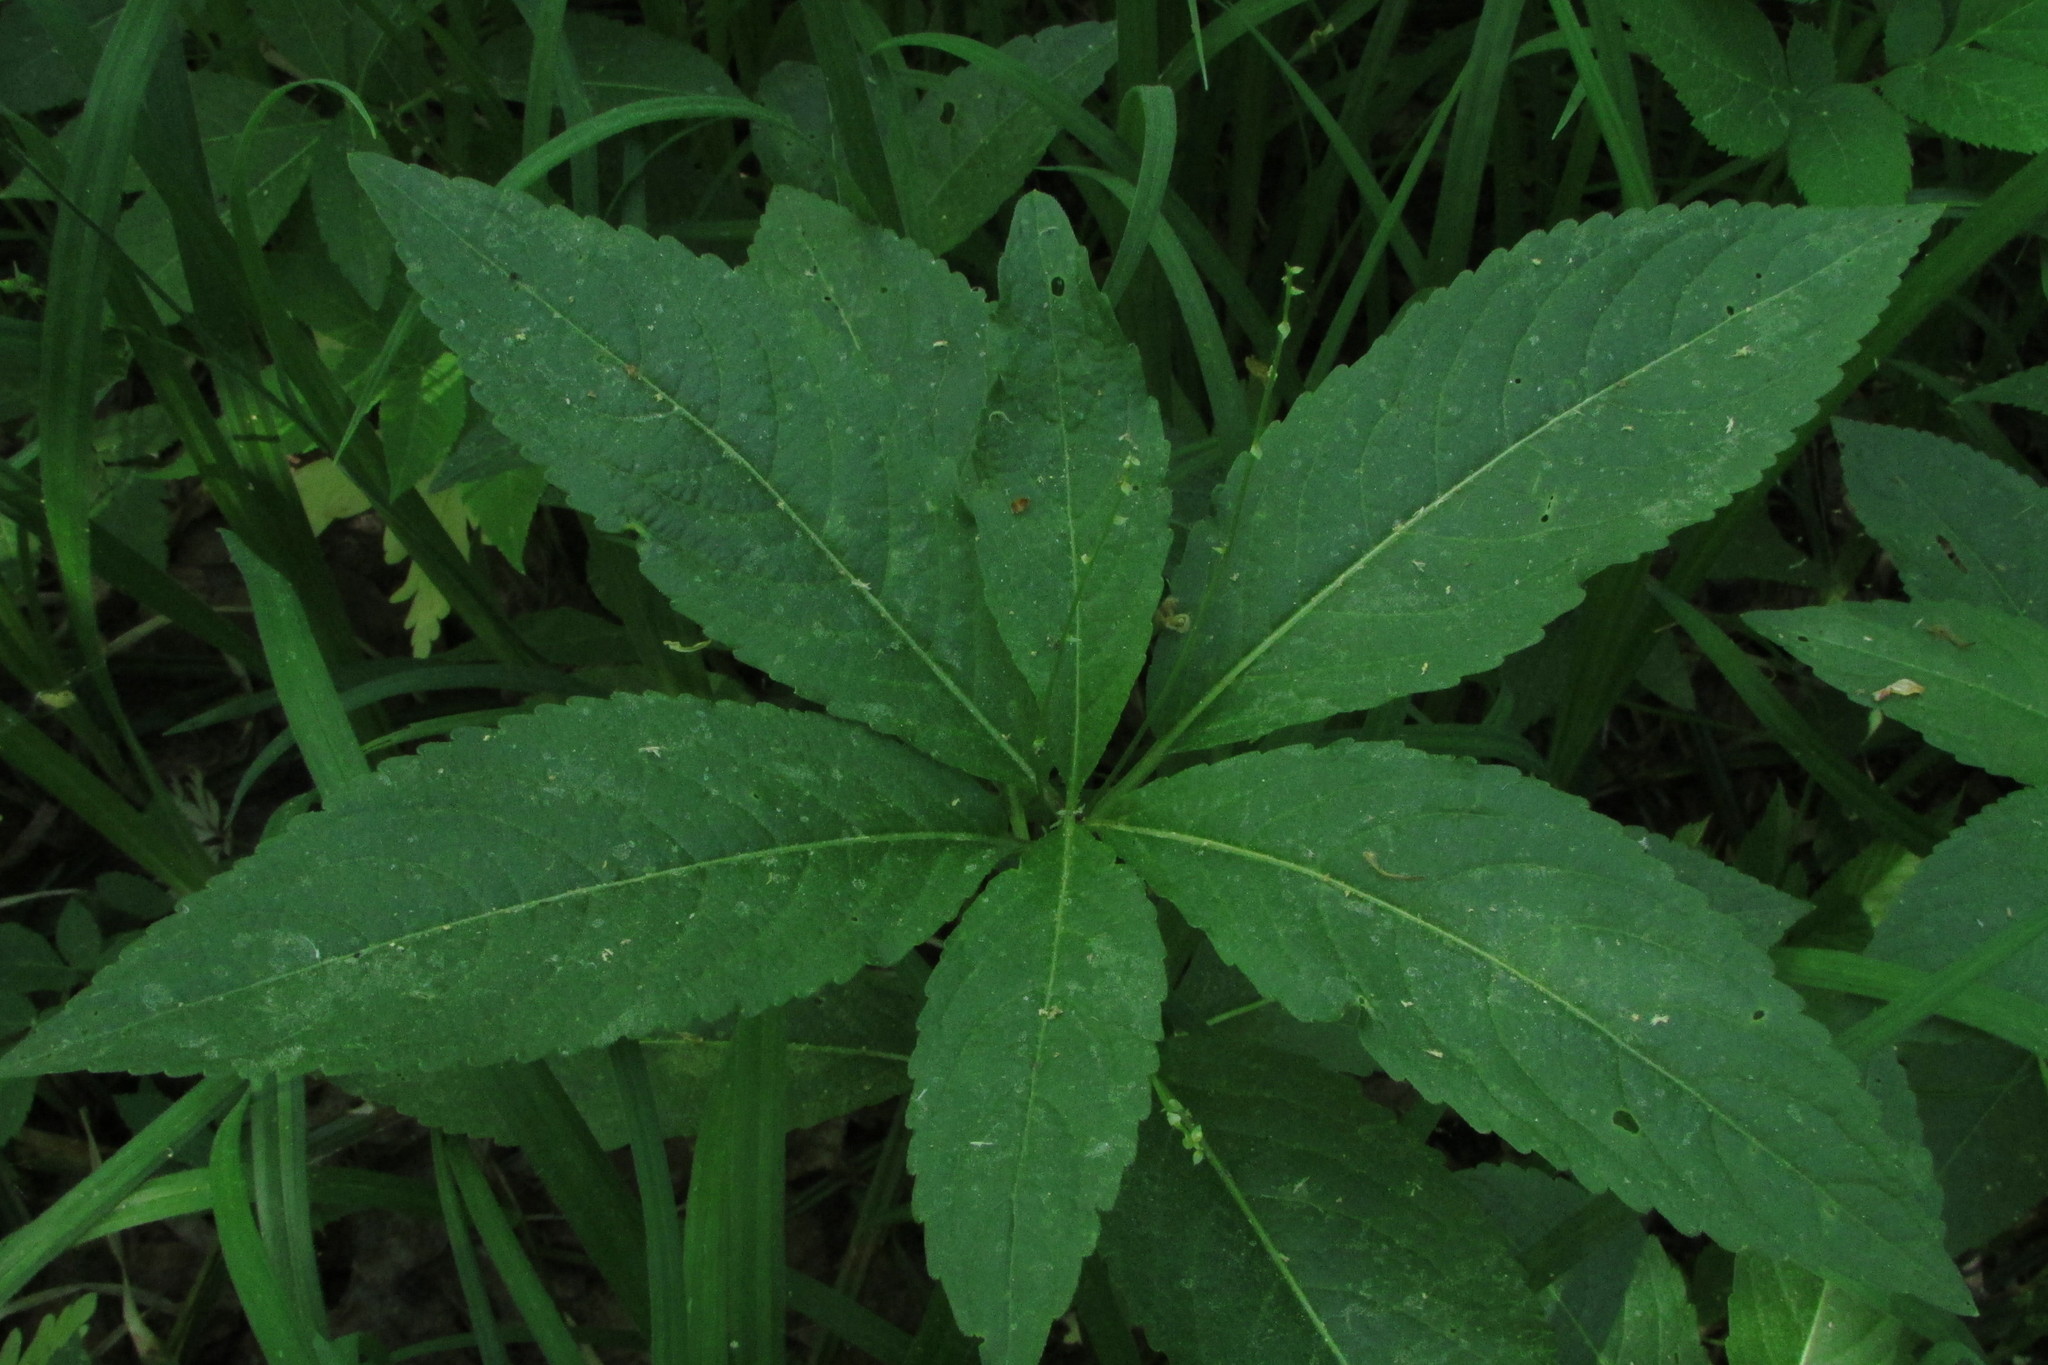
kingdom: Plantae
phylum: Tracheophyta
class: Magnoliopsida
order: Malpighiales
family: Euphorbiaceae
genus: Mercurialis
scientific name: Mercurialis perennis
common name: Dog mercury
